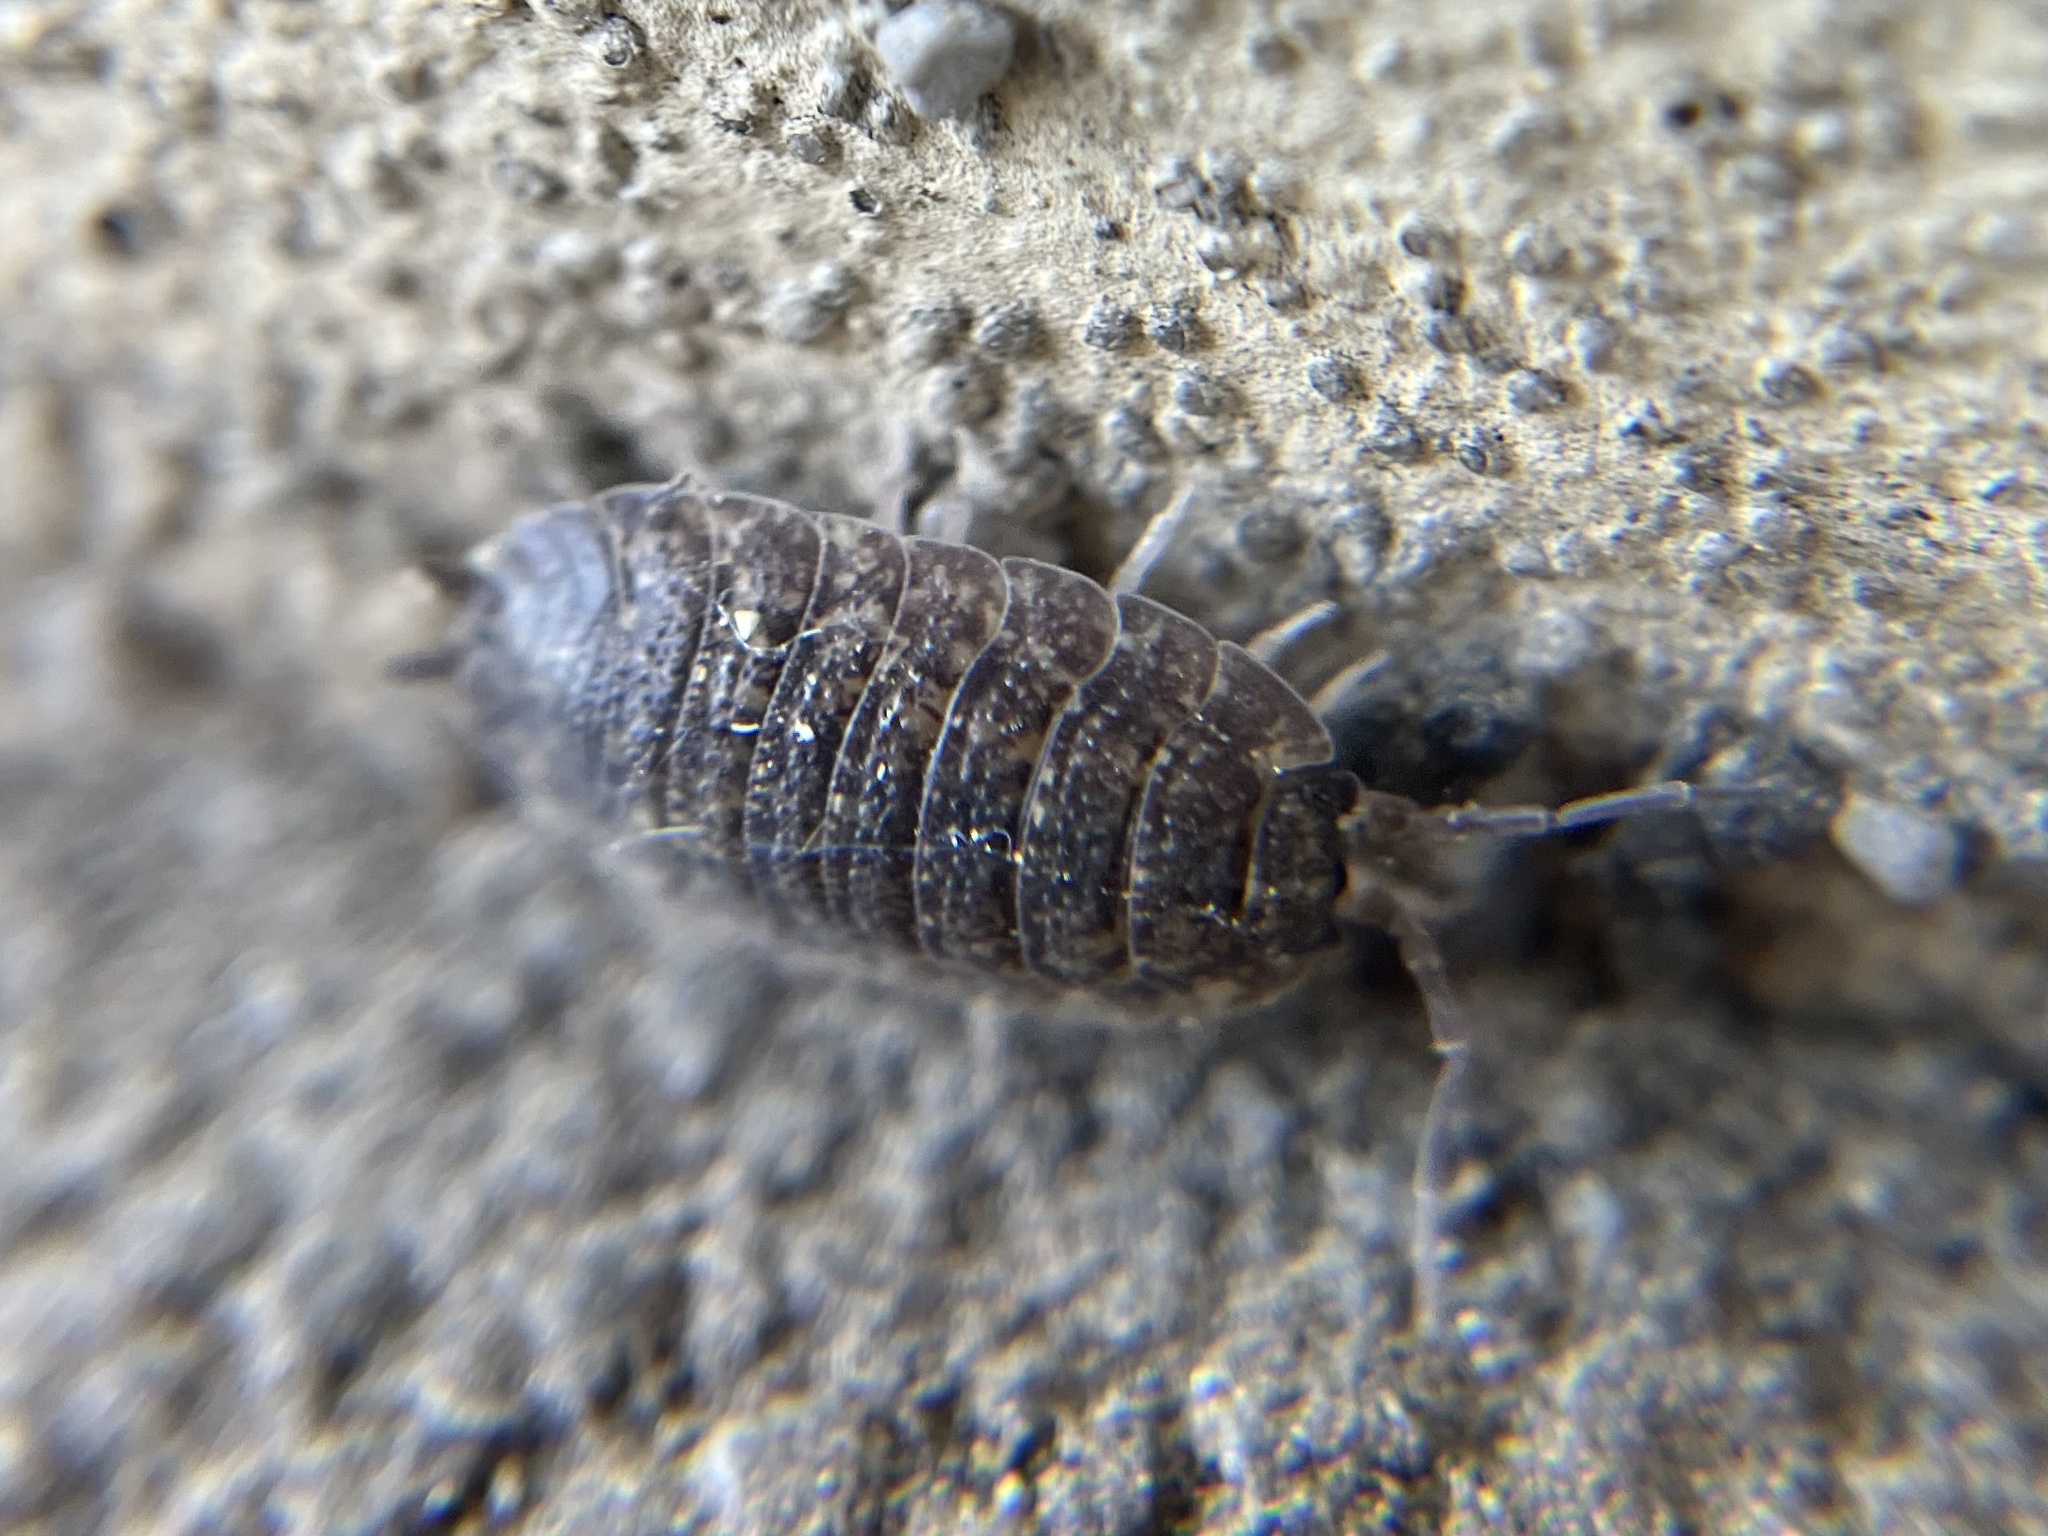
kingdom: Animalia
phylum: Arthropoda
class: Malacostraca
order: Isopoda
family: Porcellionidae
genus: Porcellio
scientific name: Porcellio scaber
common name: Common rough woodlouse
